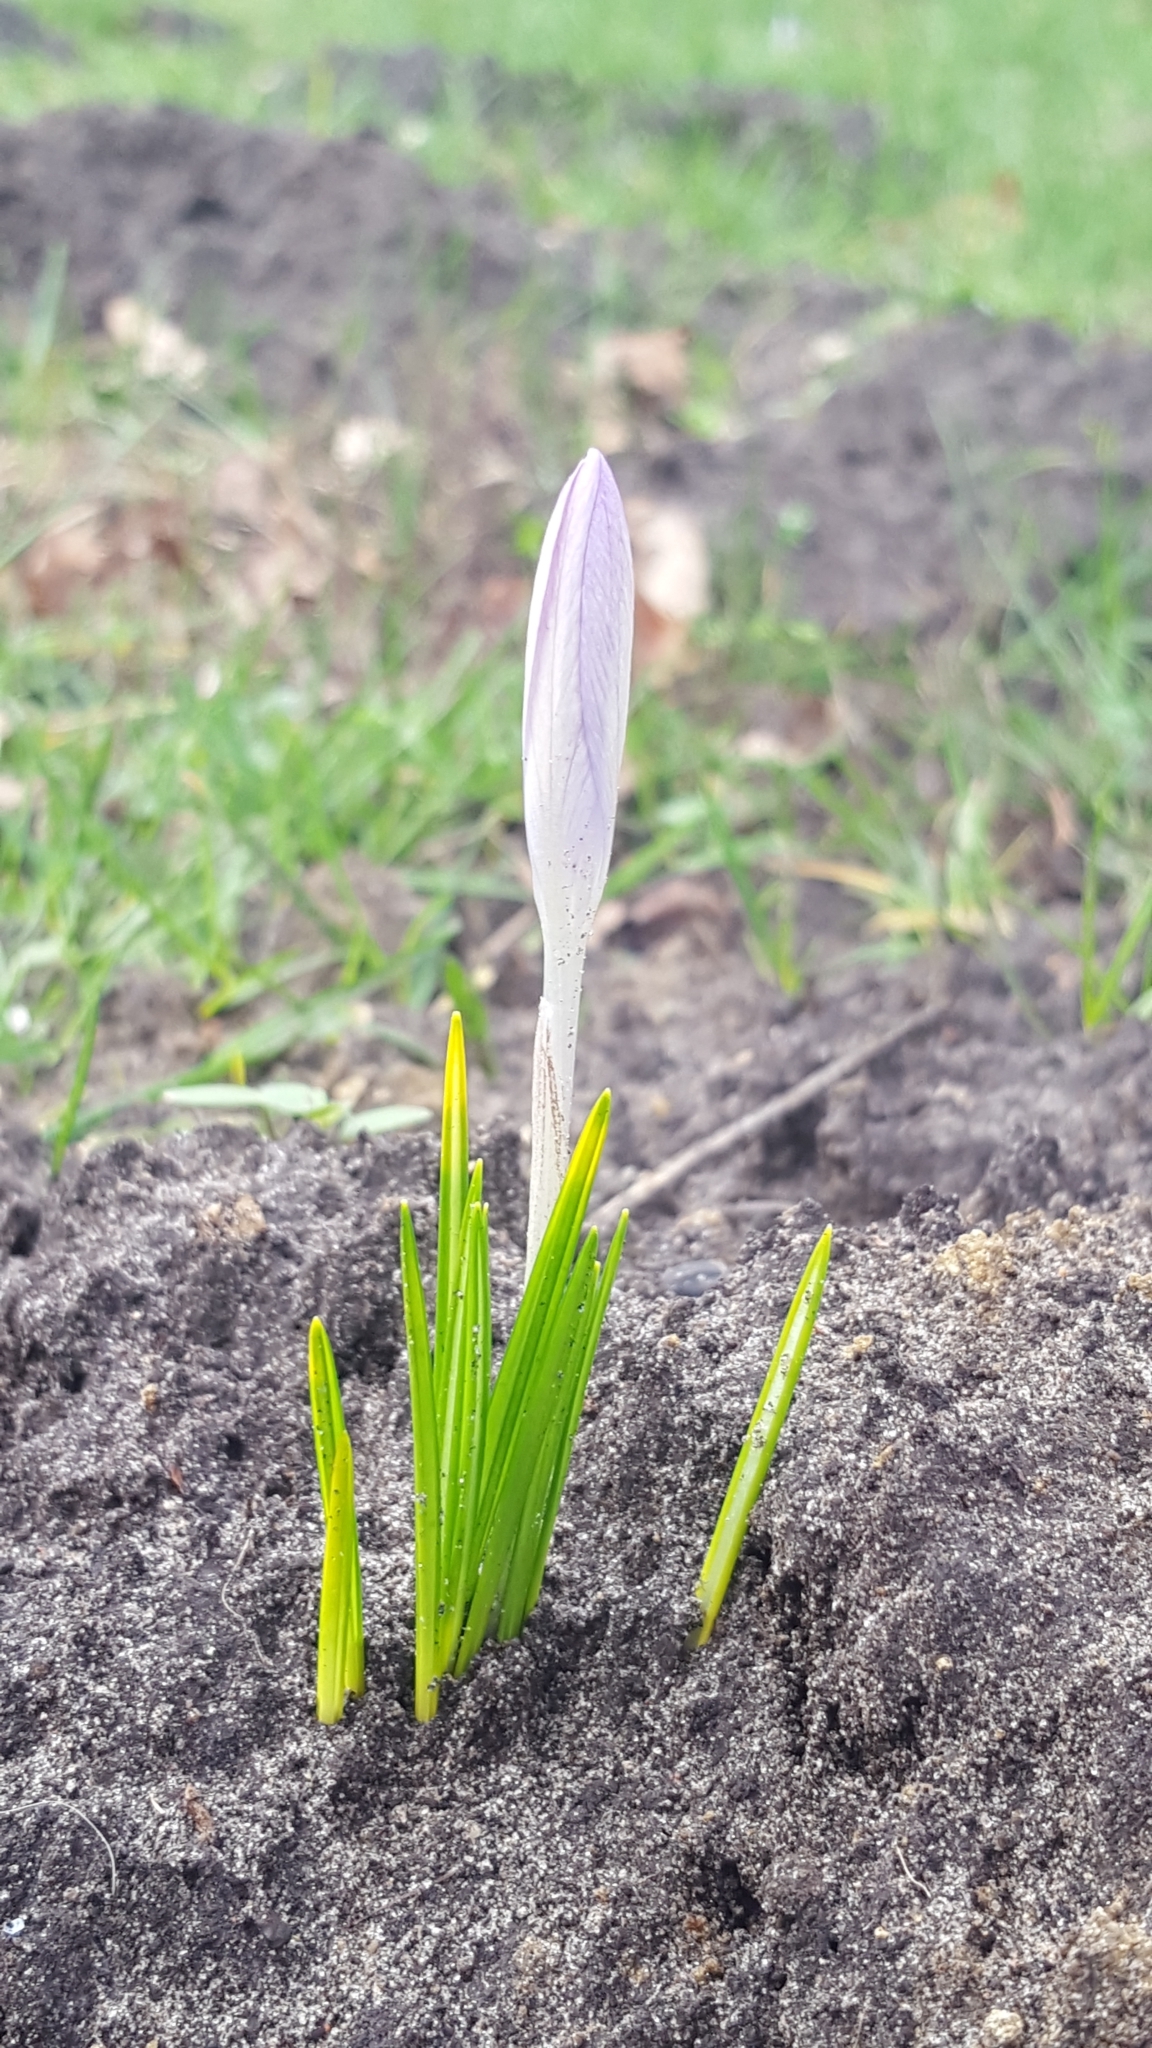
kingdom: Plantae
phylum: Tracheophyta
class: Liliopsida
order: Asparagales
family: Iridaceae
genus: Crocus
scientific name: Crocus tommasinianus
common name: Early crocus
